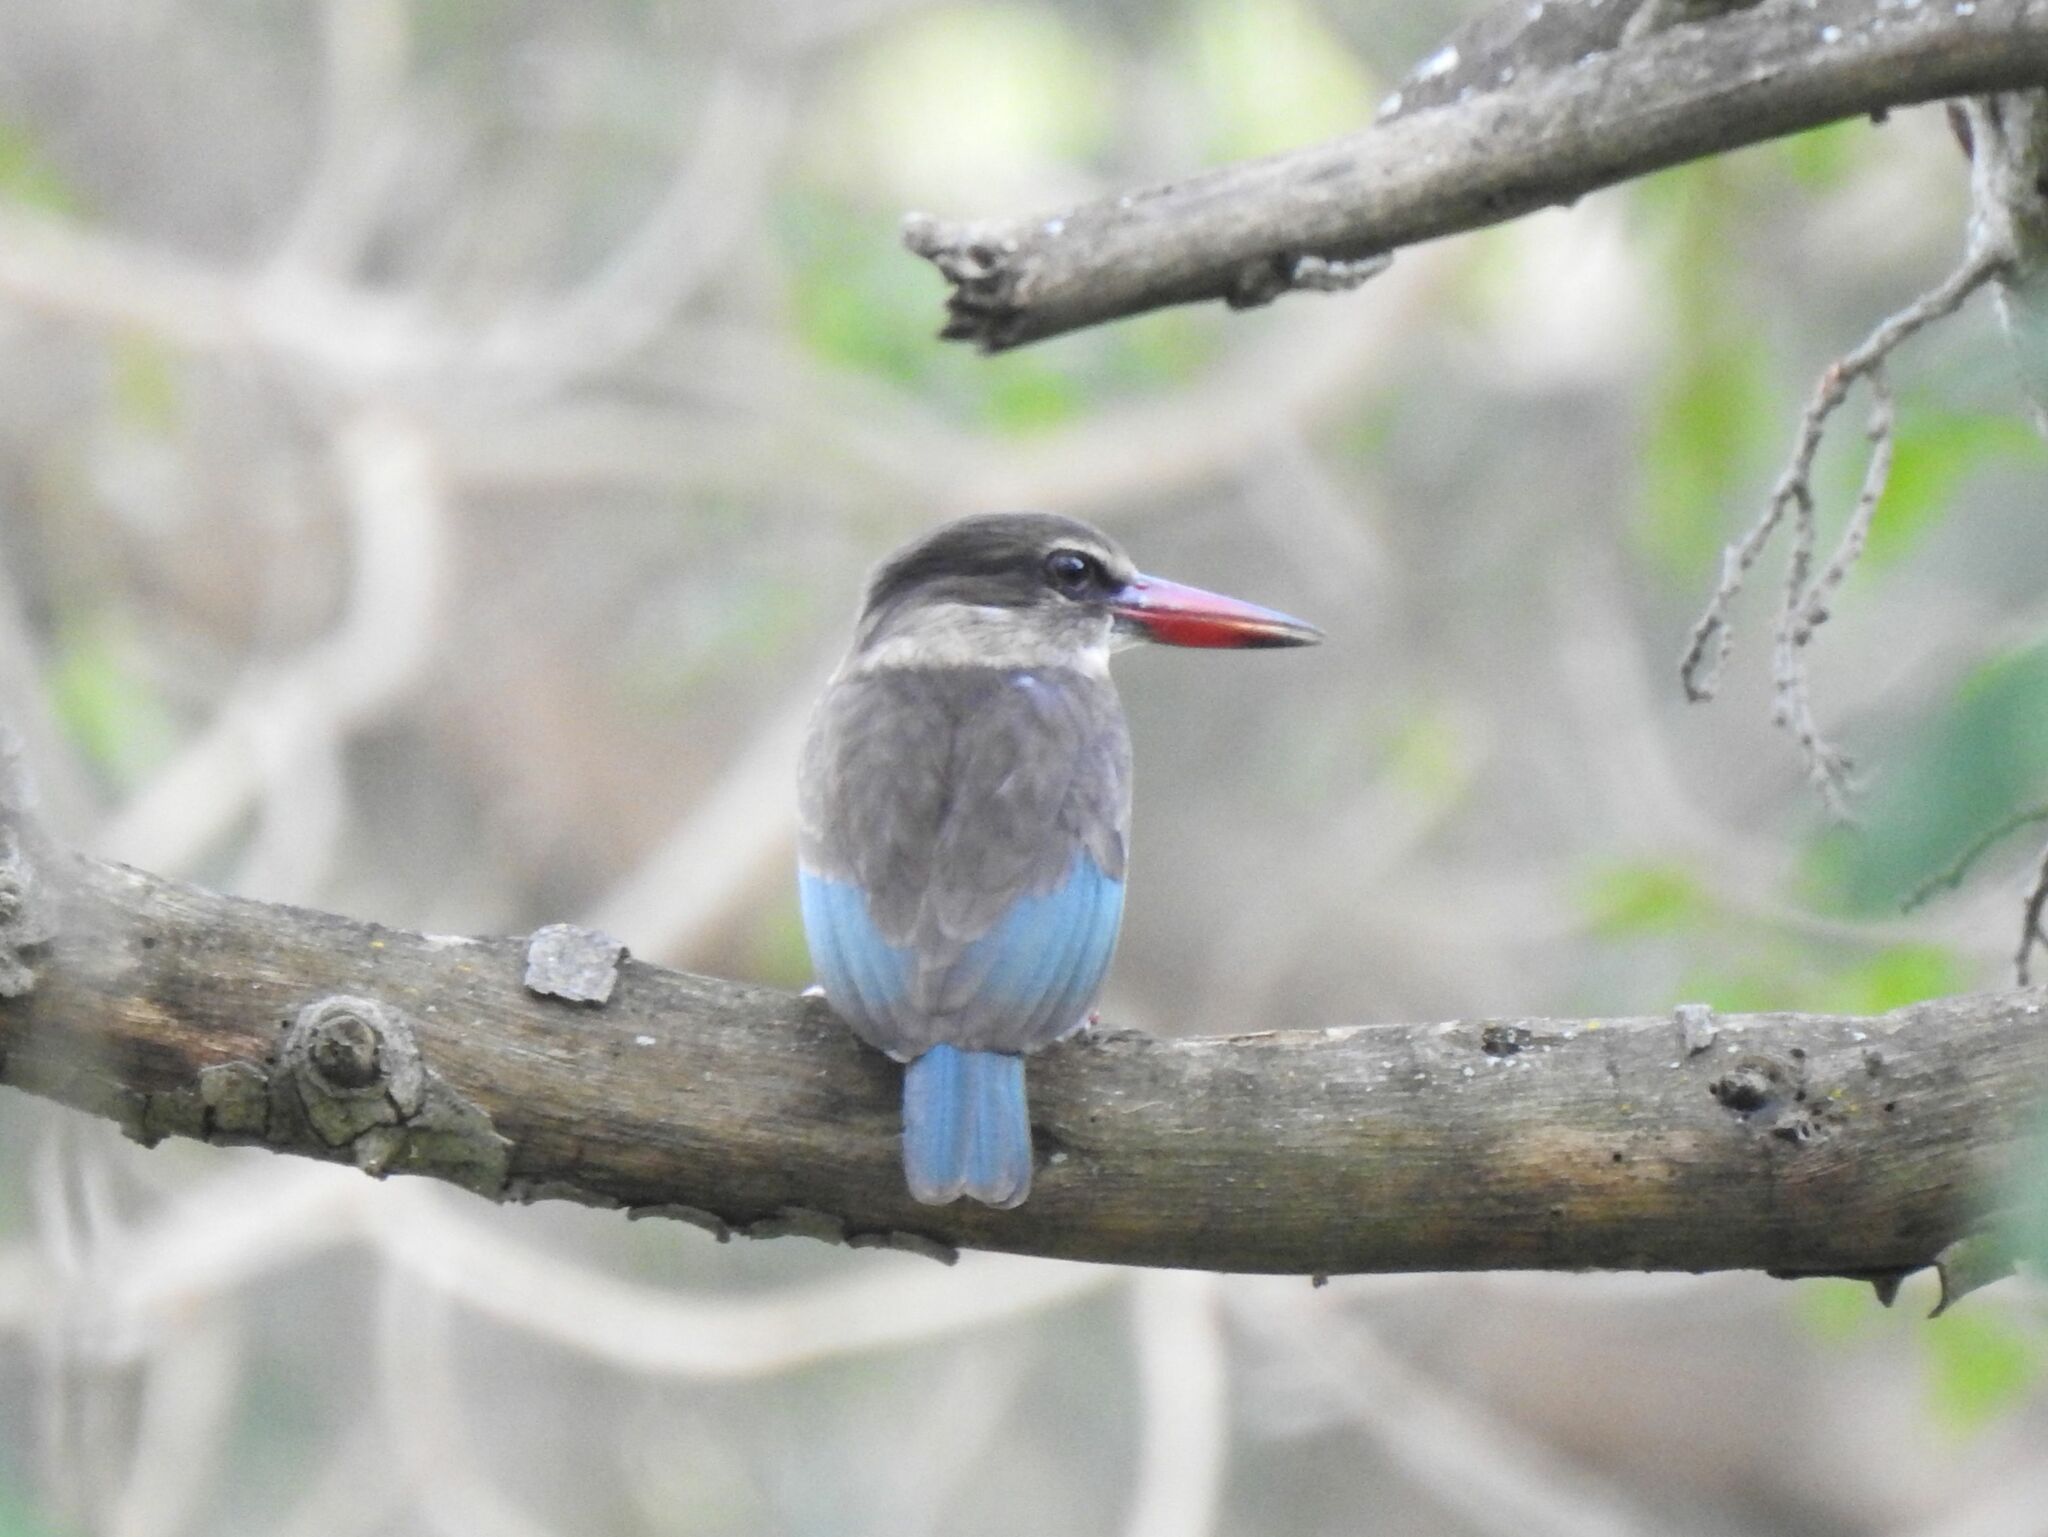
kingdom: Animalia
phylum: Chordata
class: Aves
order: Coraciiformes
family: Alcedinidae
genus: Halcyon
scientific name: Halcyon albiventris
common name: Brown-hooded kingfisher
